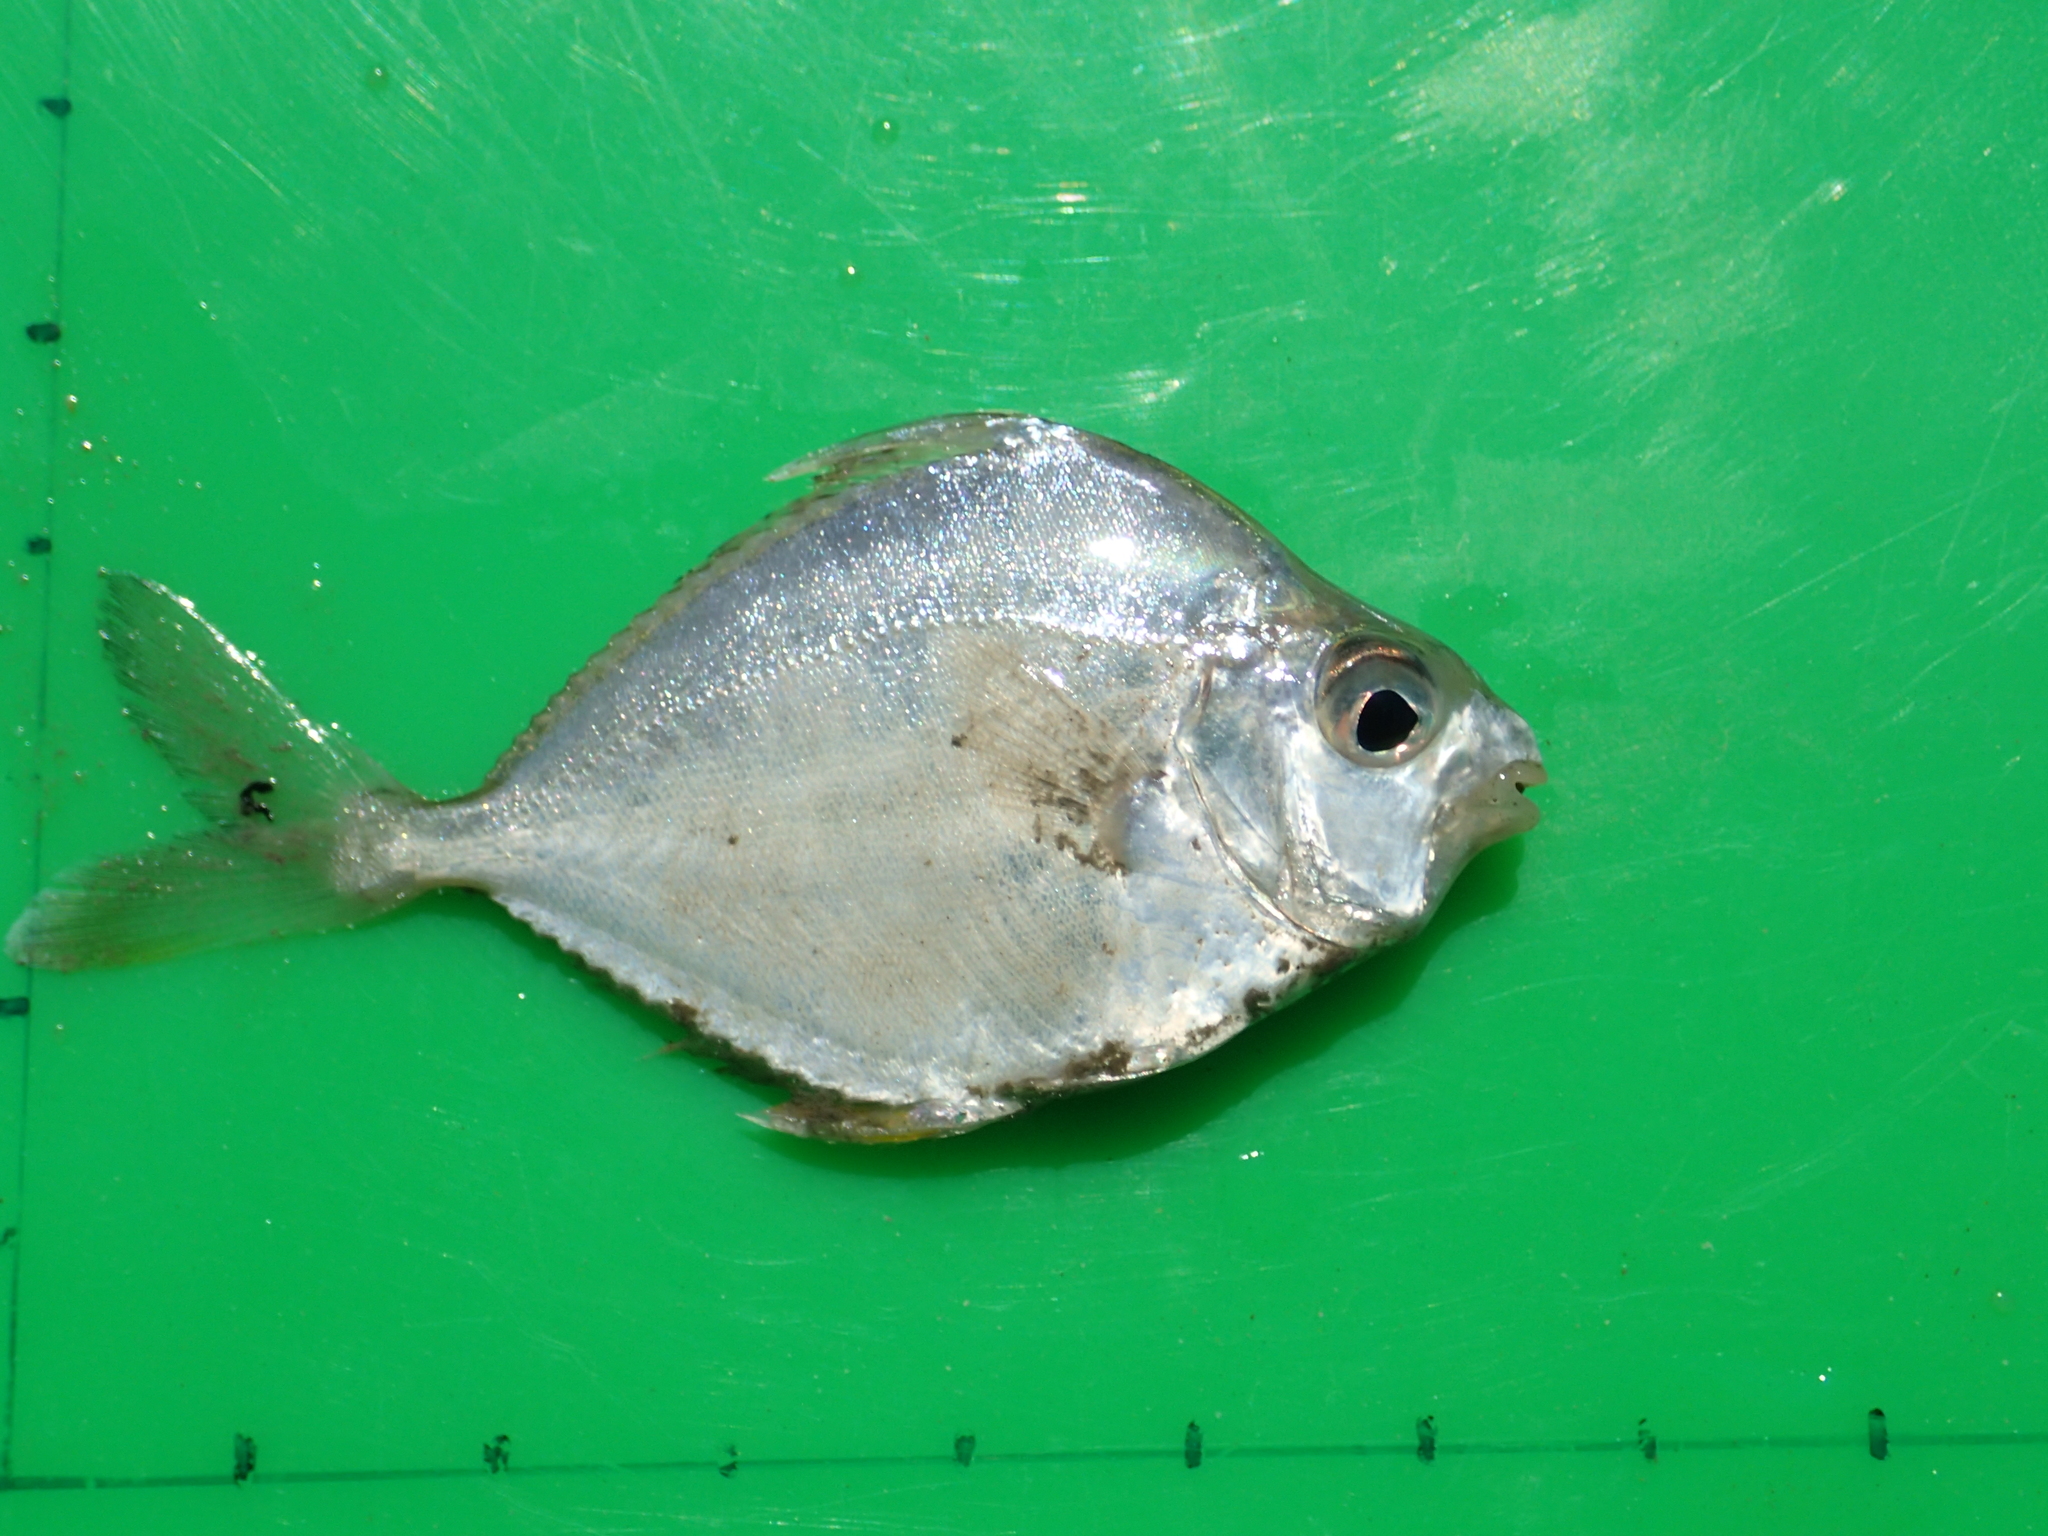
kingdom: Animalia
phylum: Chordata
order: Perciformes
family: Leiognathidae
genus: Leiognathus
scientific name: Leiognathus equulus
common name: Common ponyfish
